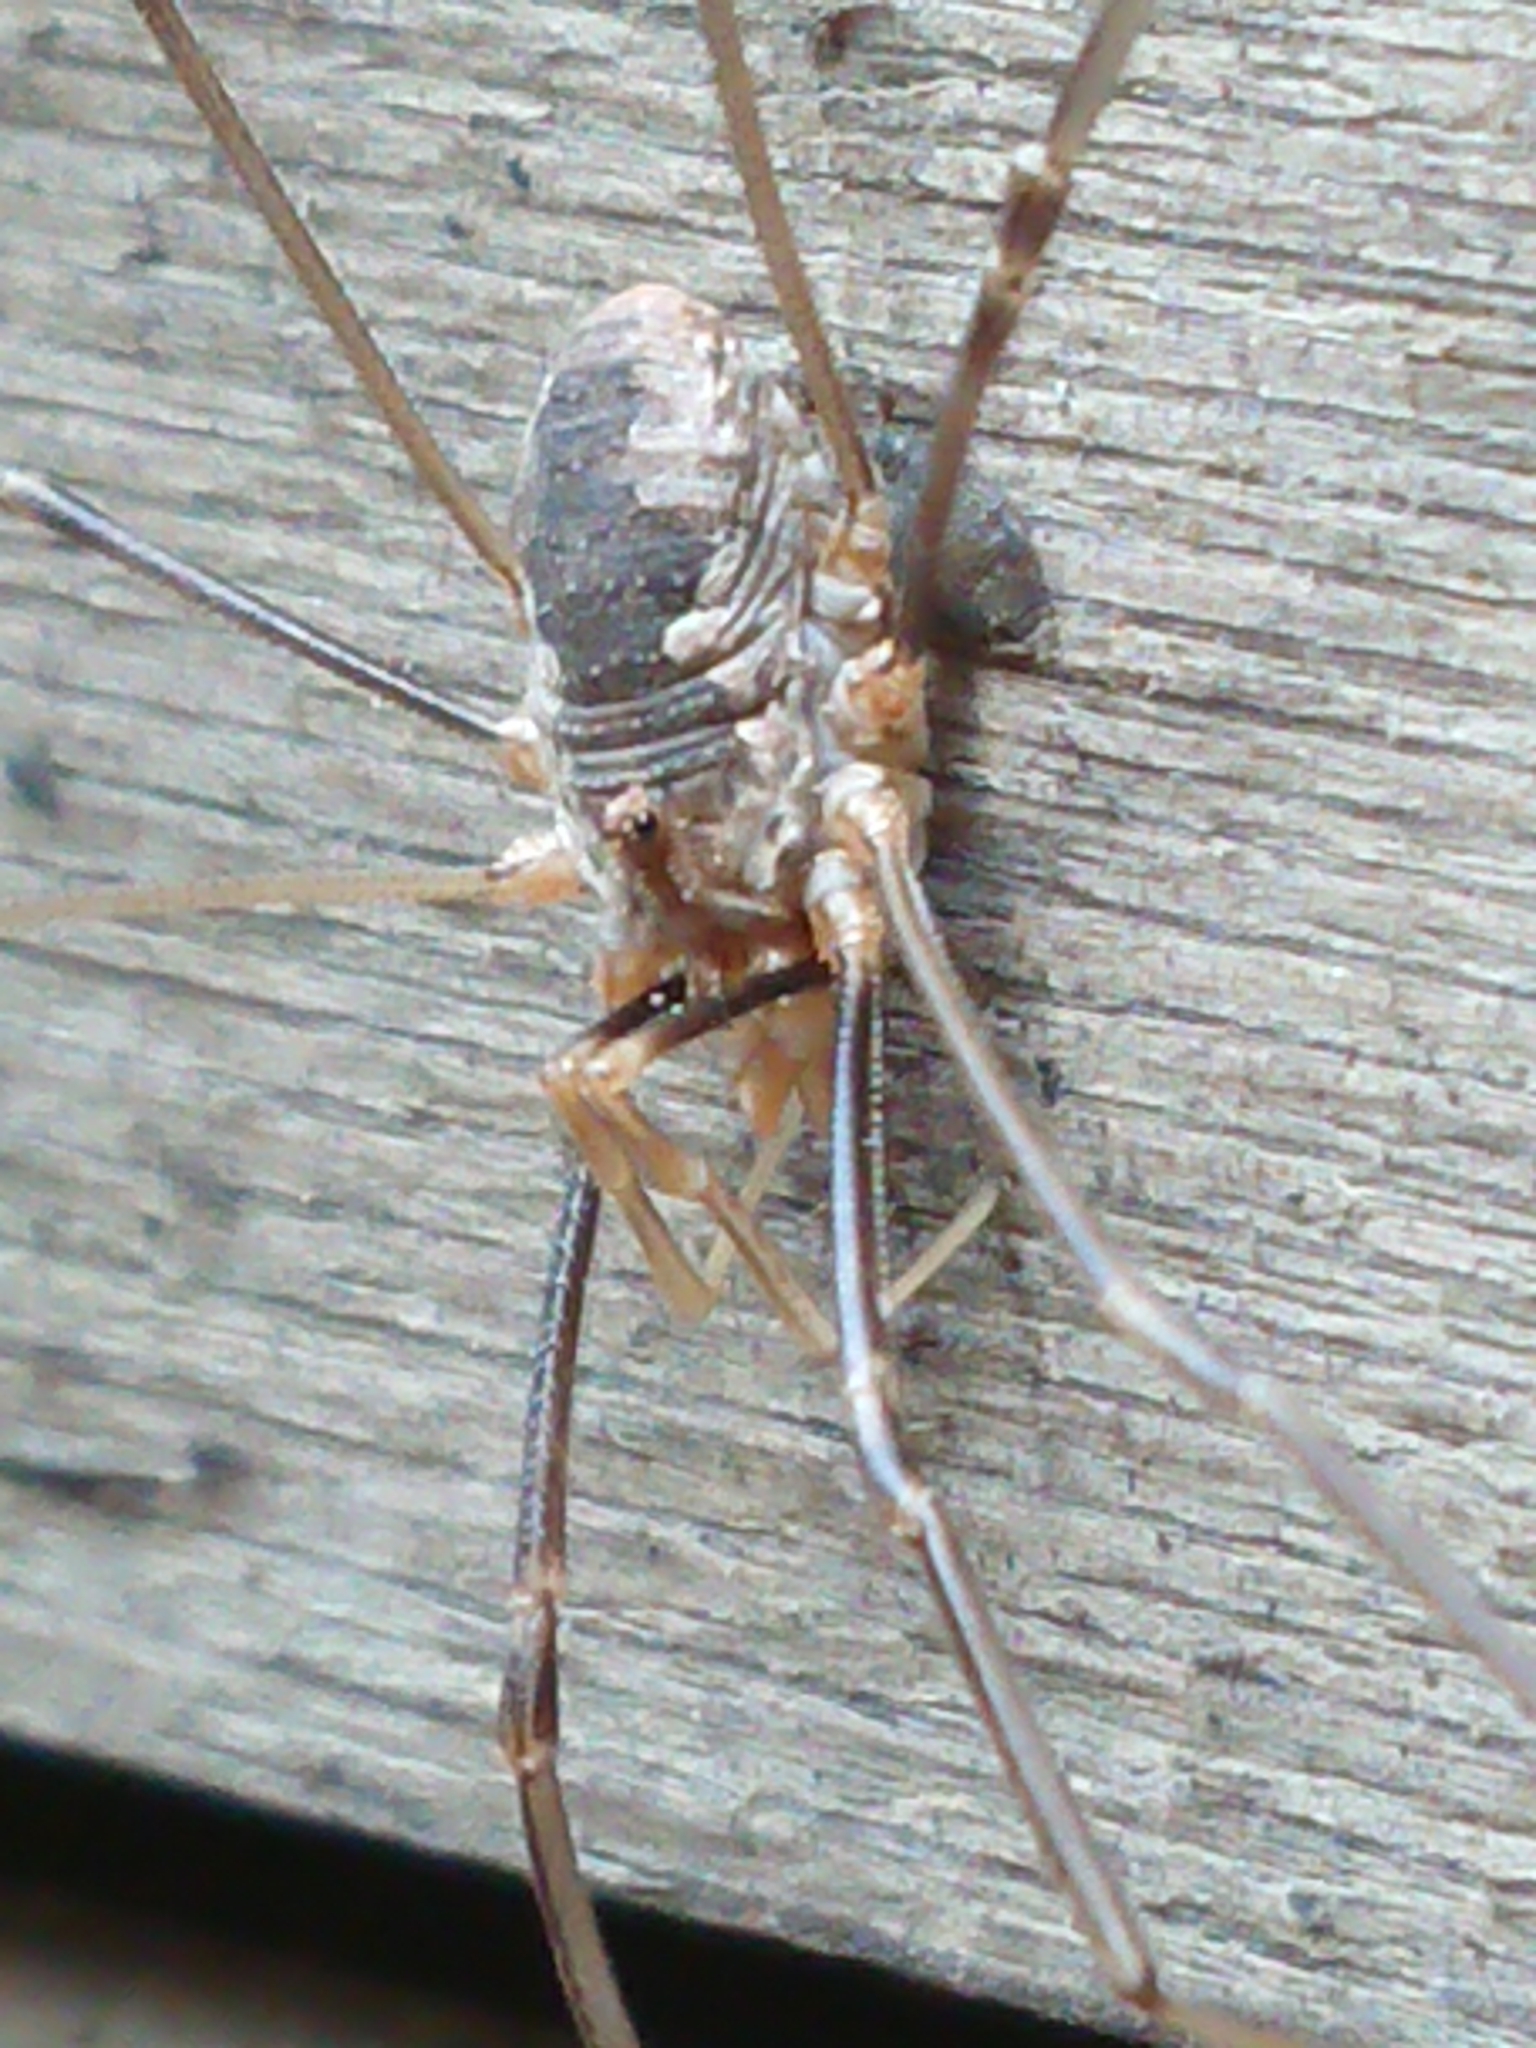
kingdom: Animalia
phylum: Arthropoda
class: Arachnida
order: Opiliones
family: Phalangiidae
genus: Phalangium
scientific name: Phalangium opilio
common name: Daddy longleg
